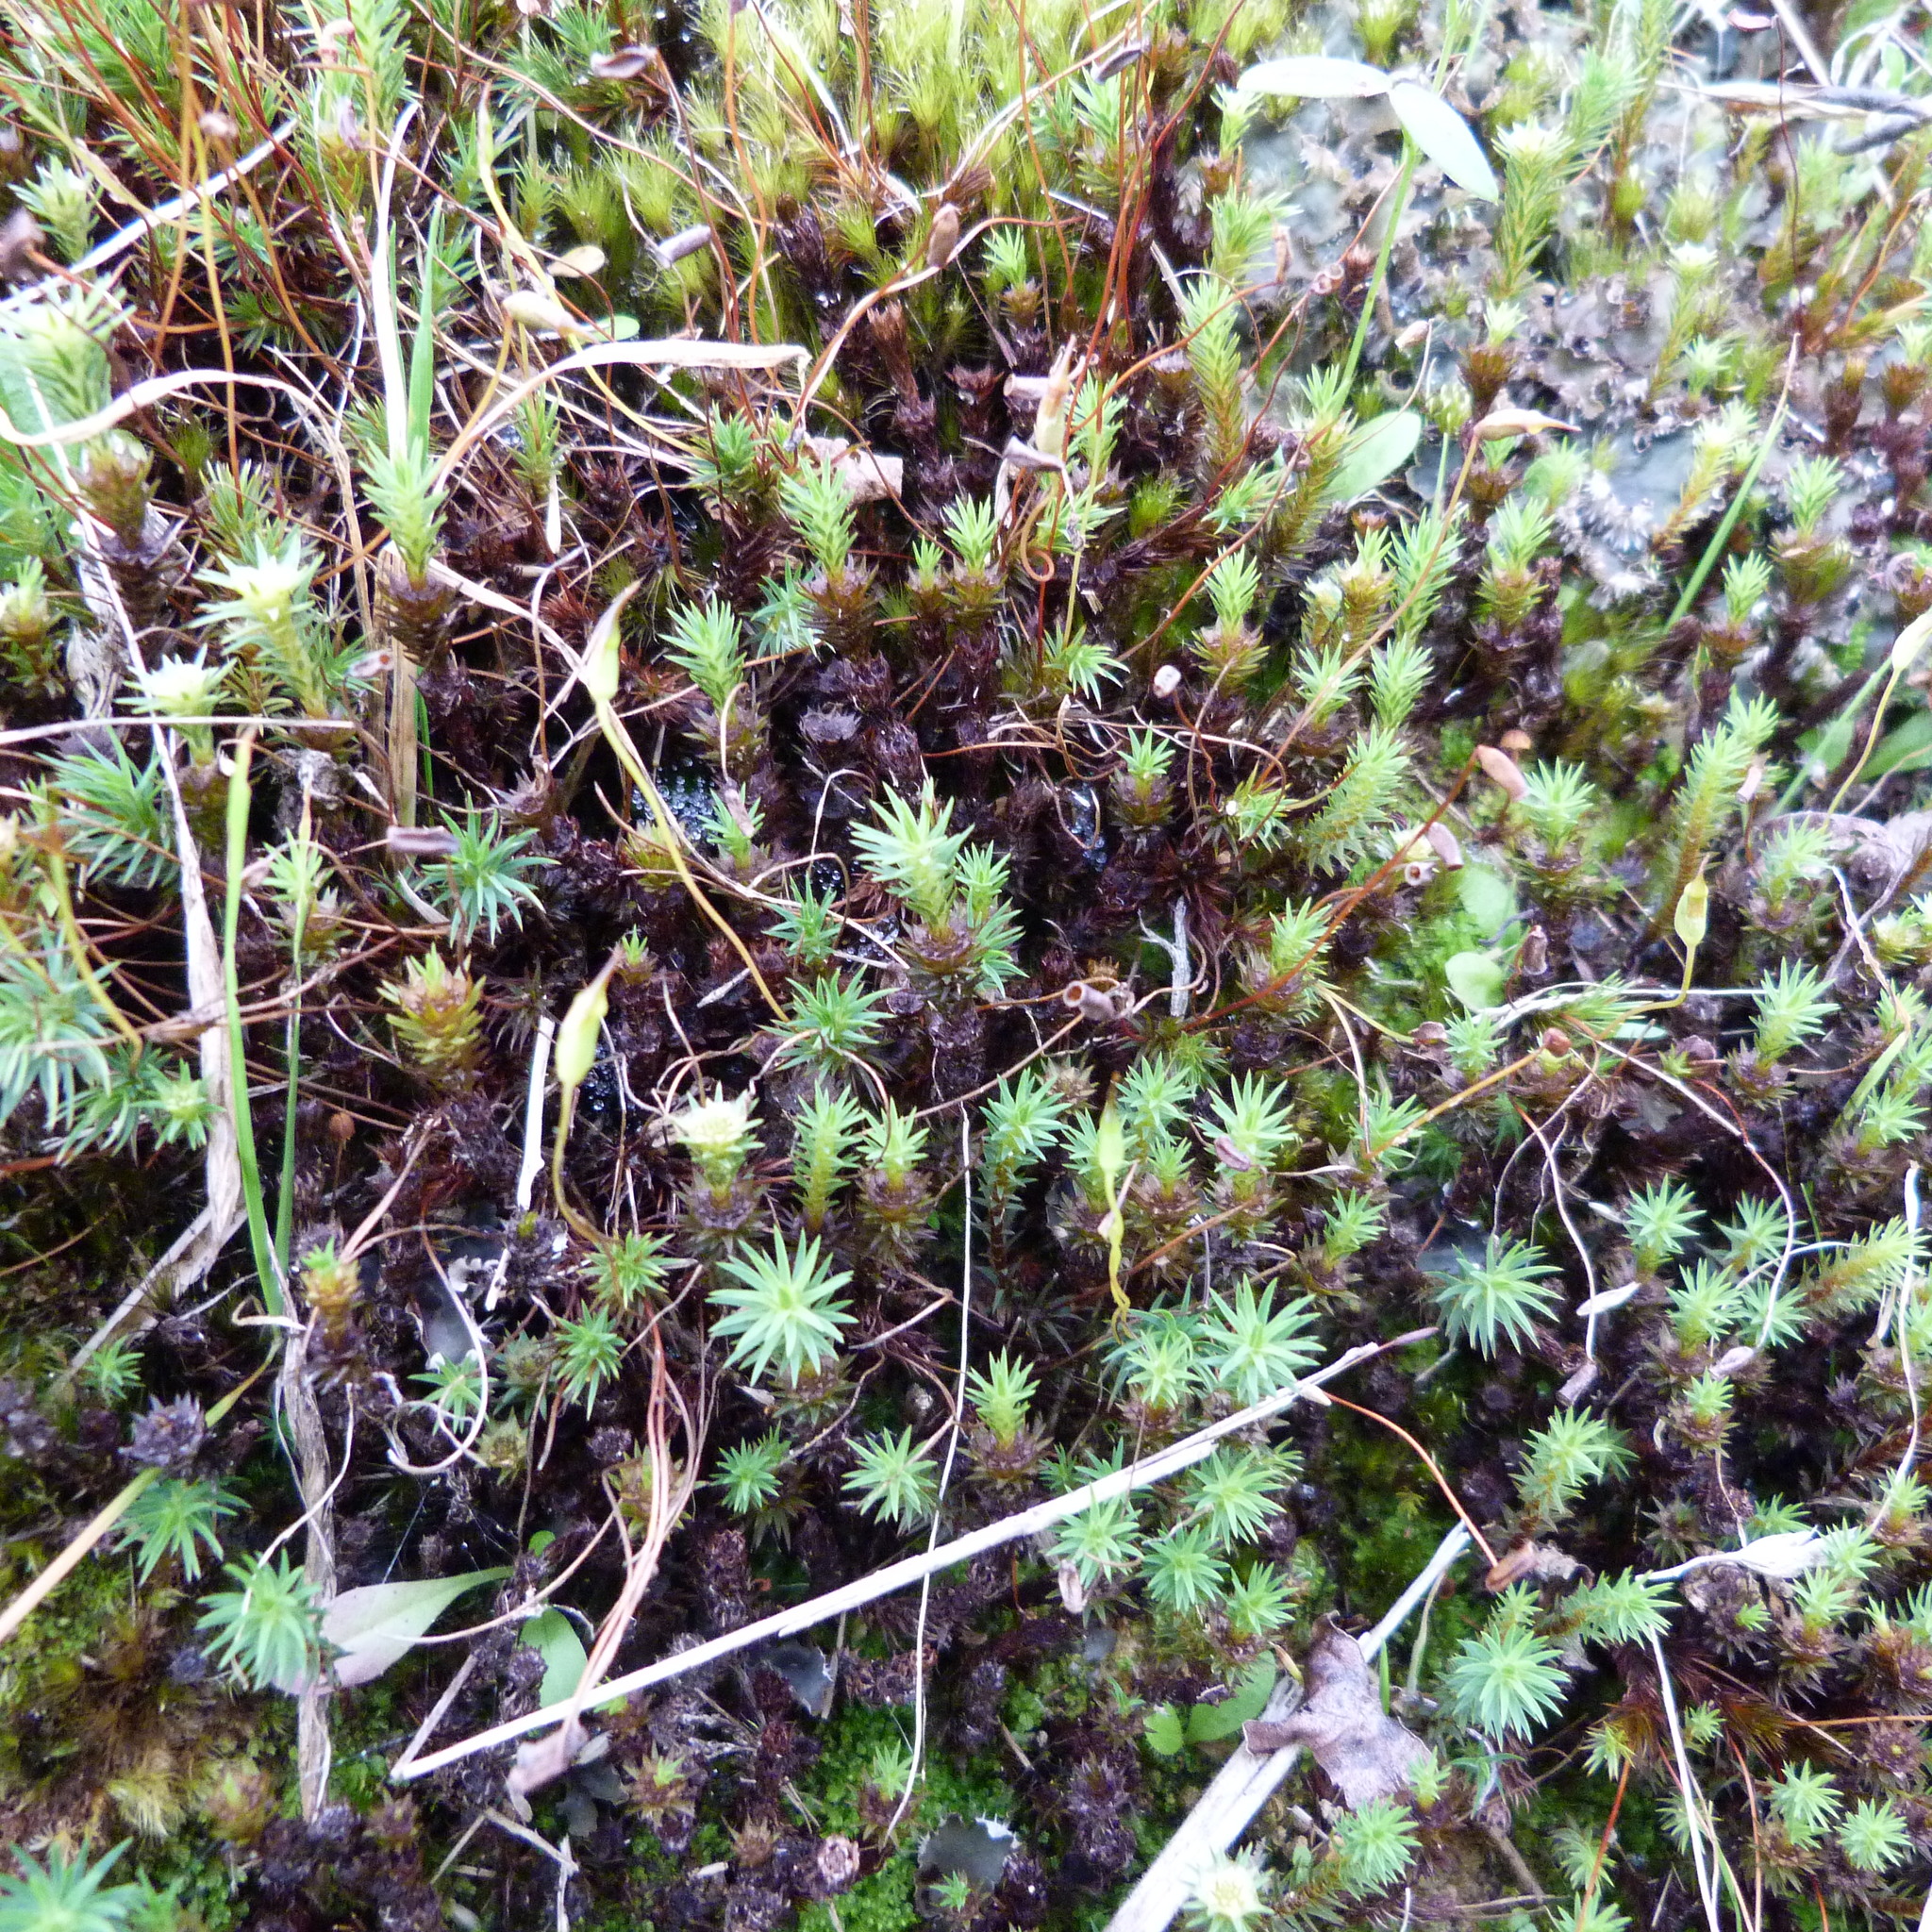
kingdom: Plantae
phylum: Bryophyta
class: Polytrichopsida
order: Polytrichales
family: Polytrichaceae
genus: Polytrichadelphus
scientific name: Polytrichadelphus magellanicus
